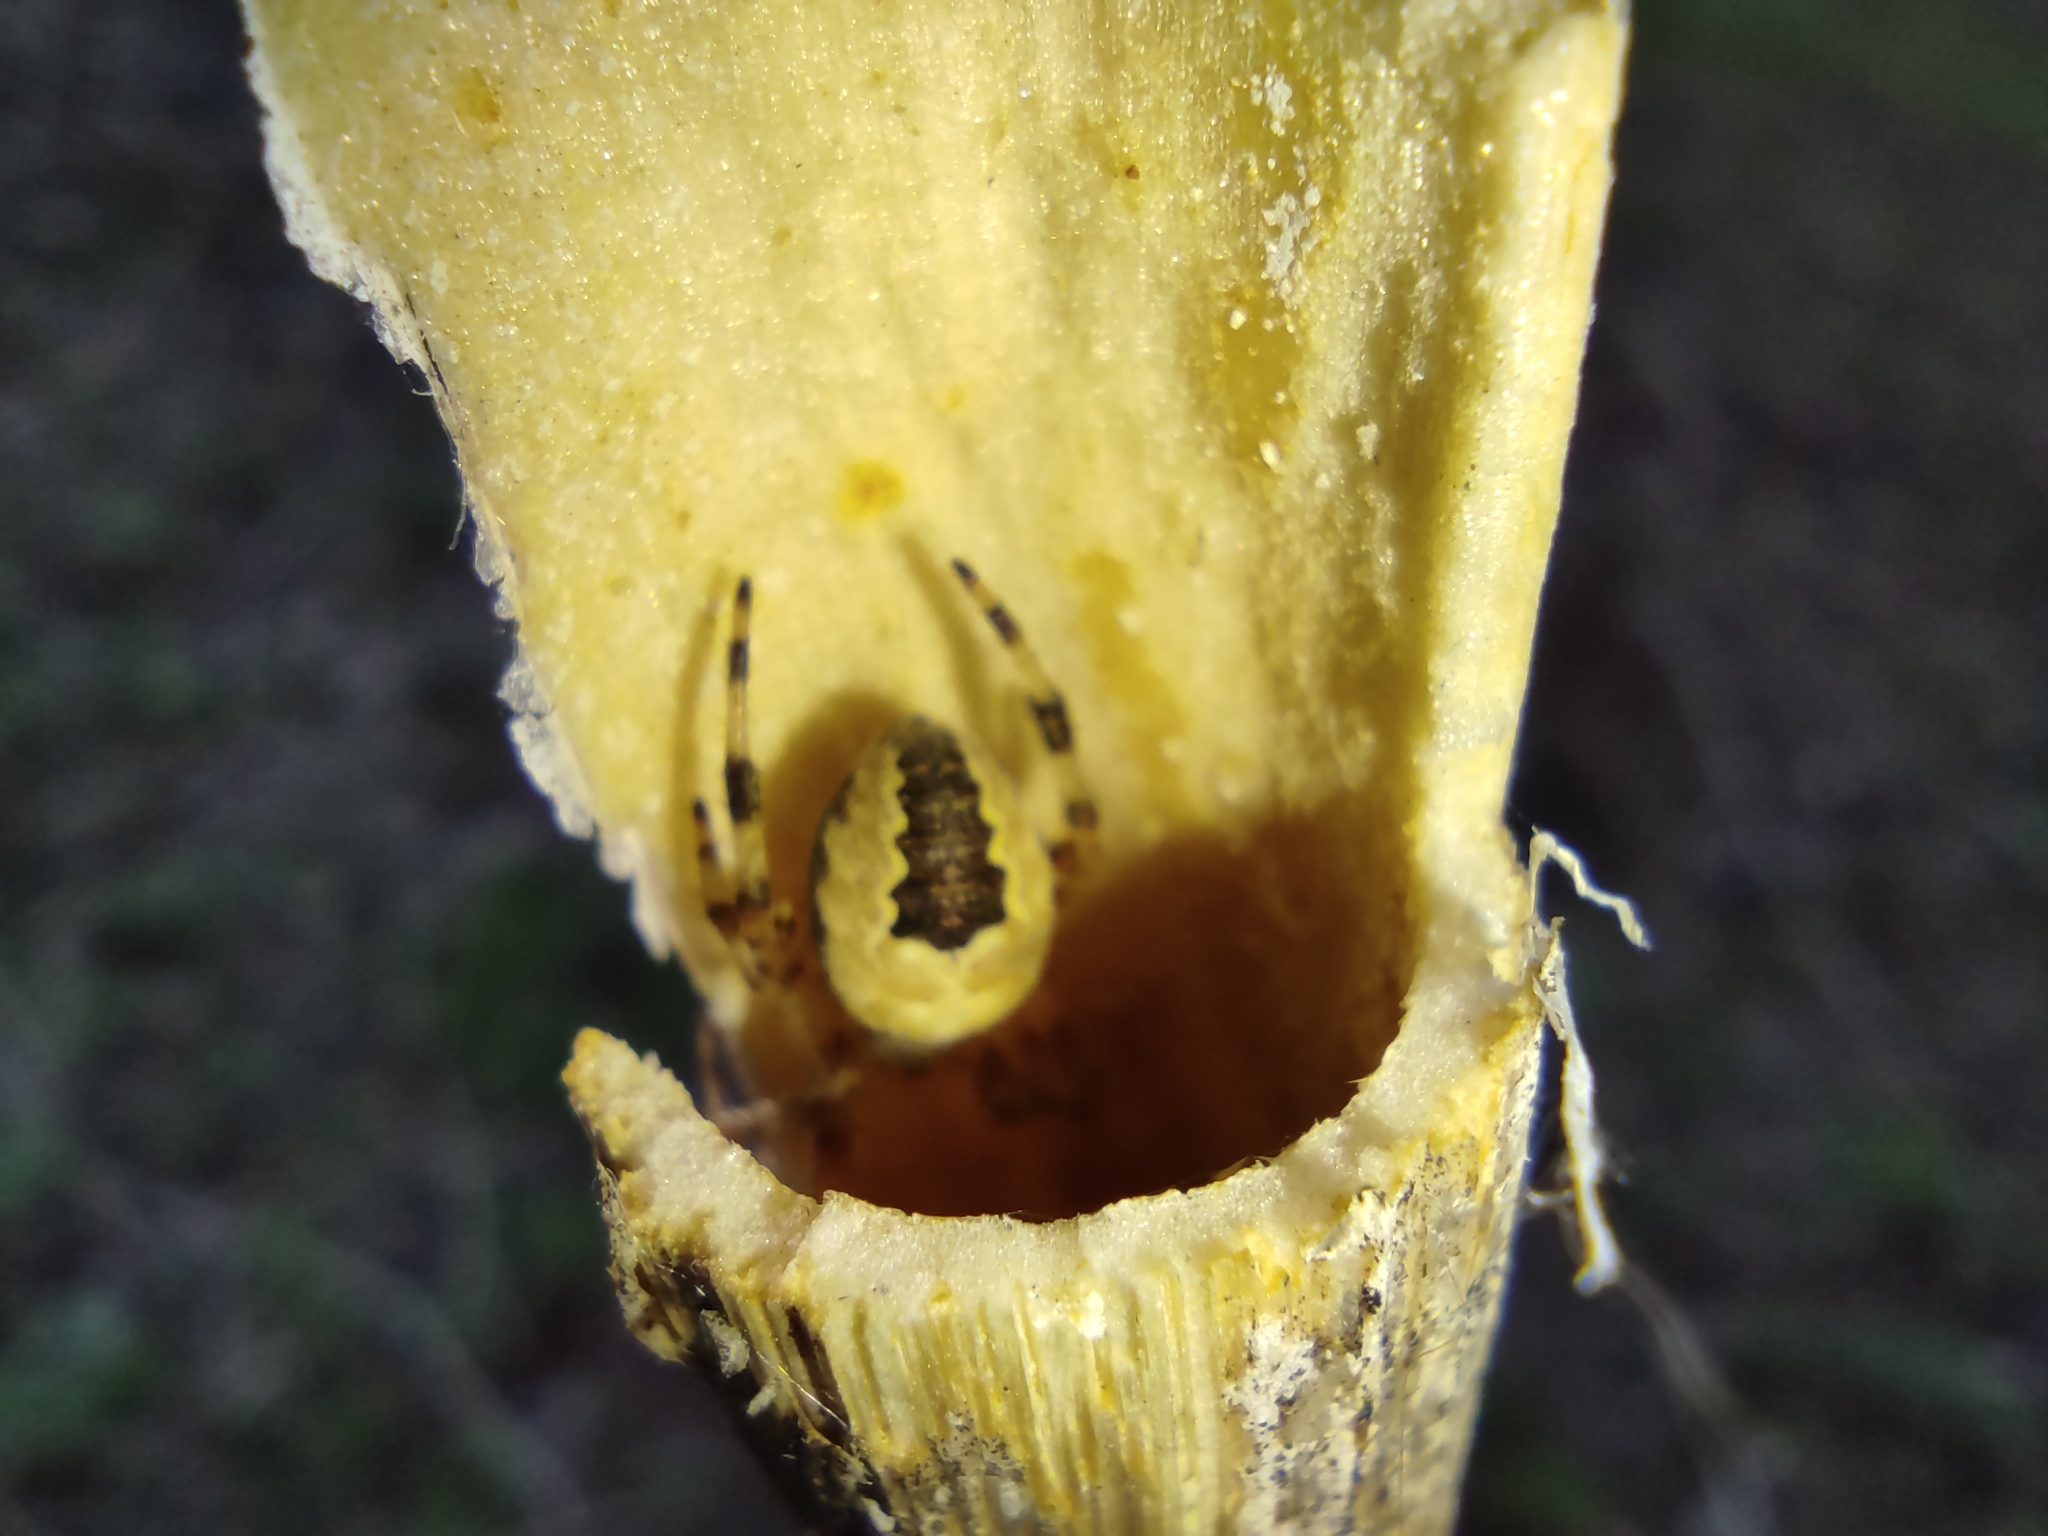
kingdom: Animalia
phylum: Arthropoda
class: Arachnida
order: Araneae
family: Araneidae
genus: Araneus
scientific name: Araneus marmoreus
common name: Marbled orbweaver
